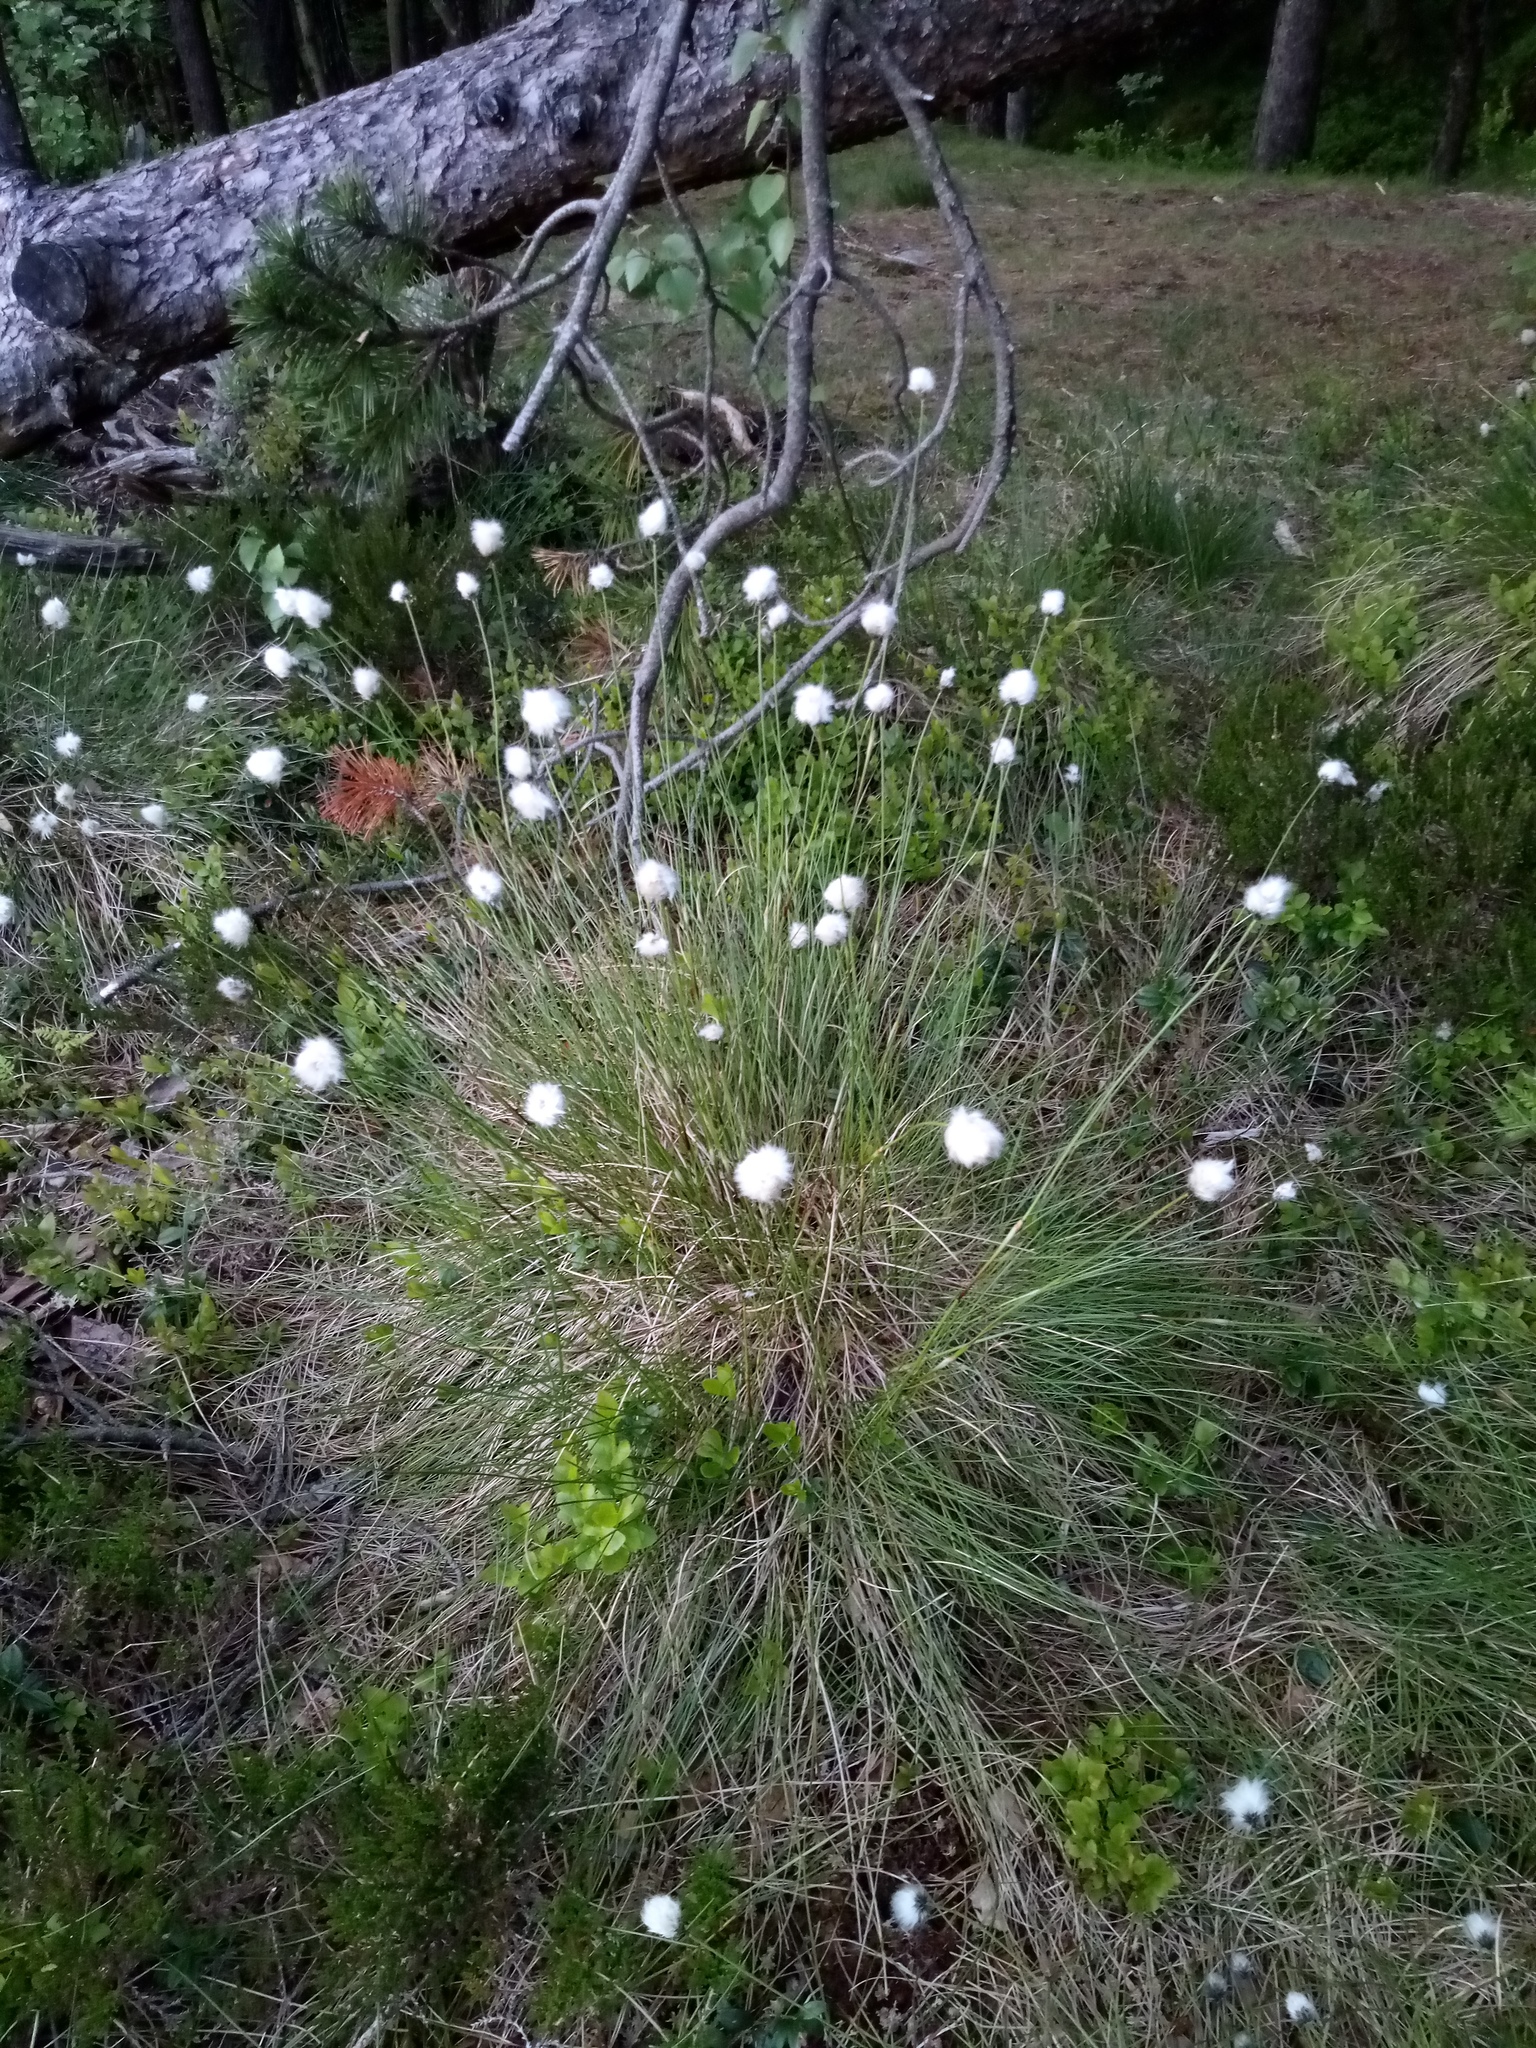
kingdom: Plantae
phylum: Tracheophyta
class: Liliopsida
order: Poales
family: Cyperaceae
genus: Eriophorum
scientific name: Eriophorum vaginatum
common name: Hare's-tail cottongrass
